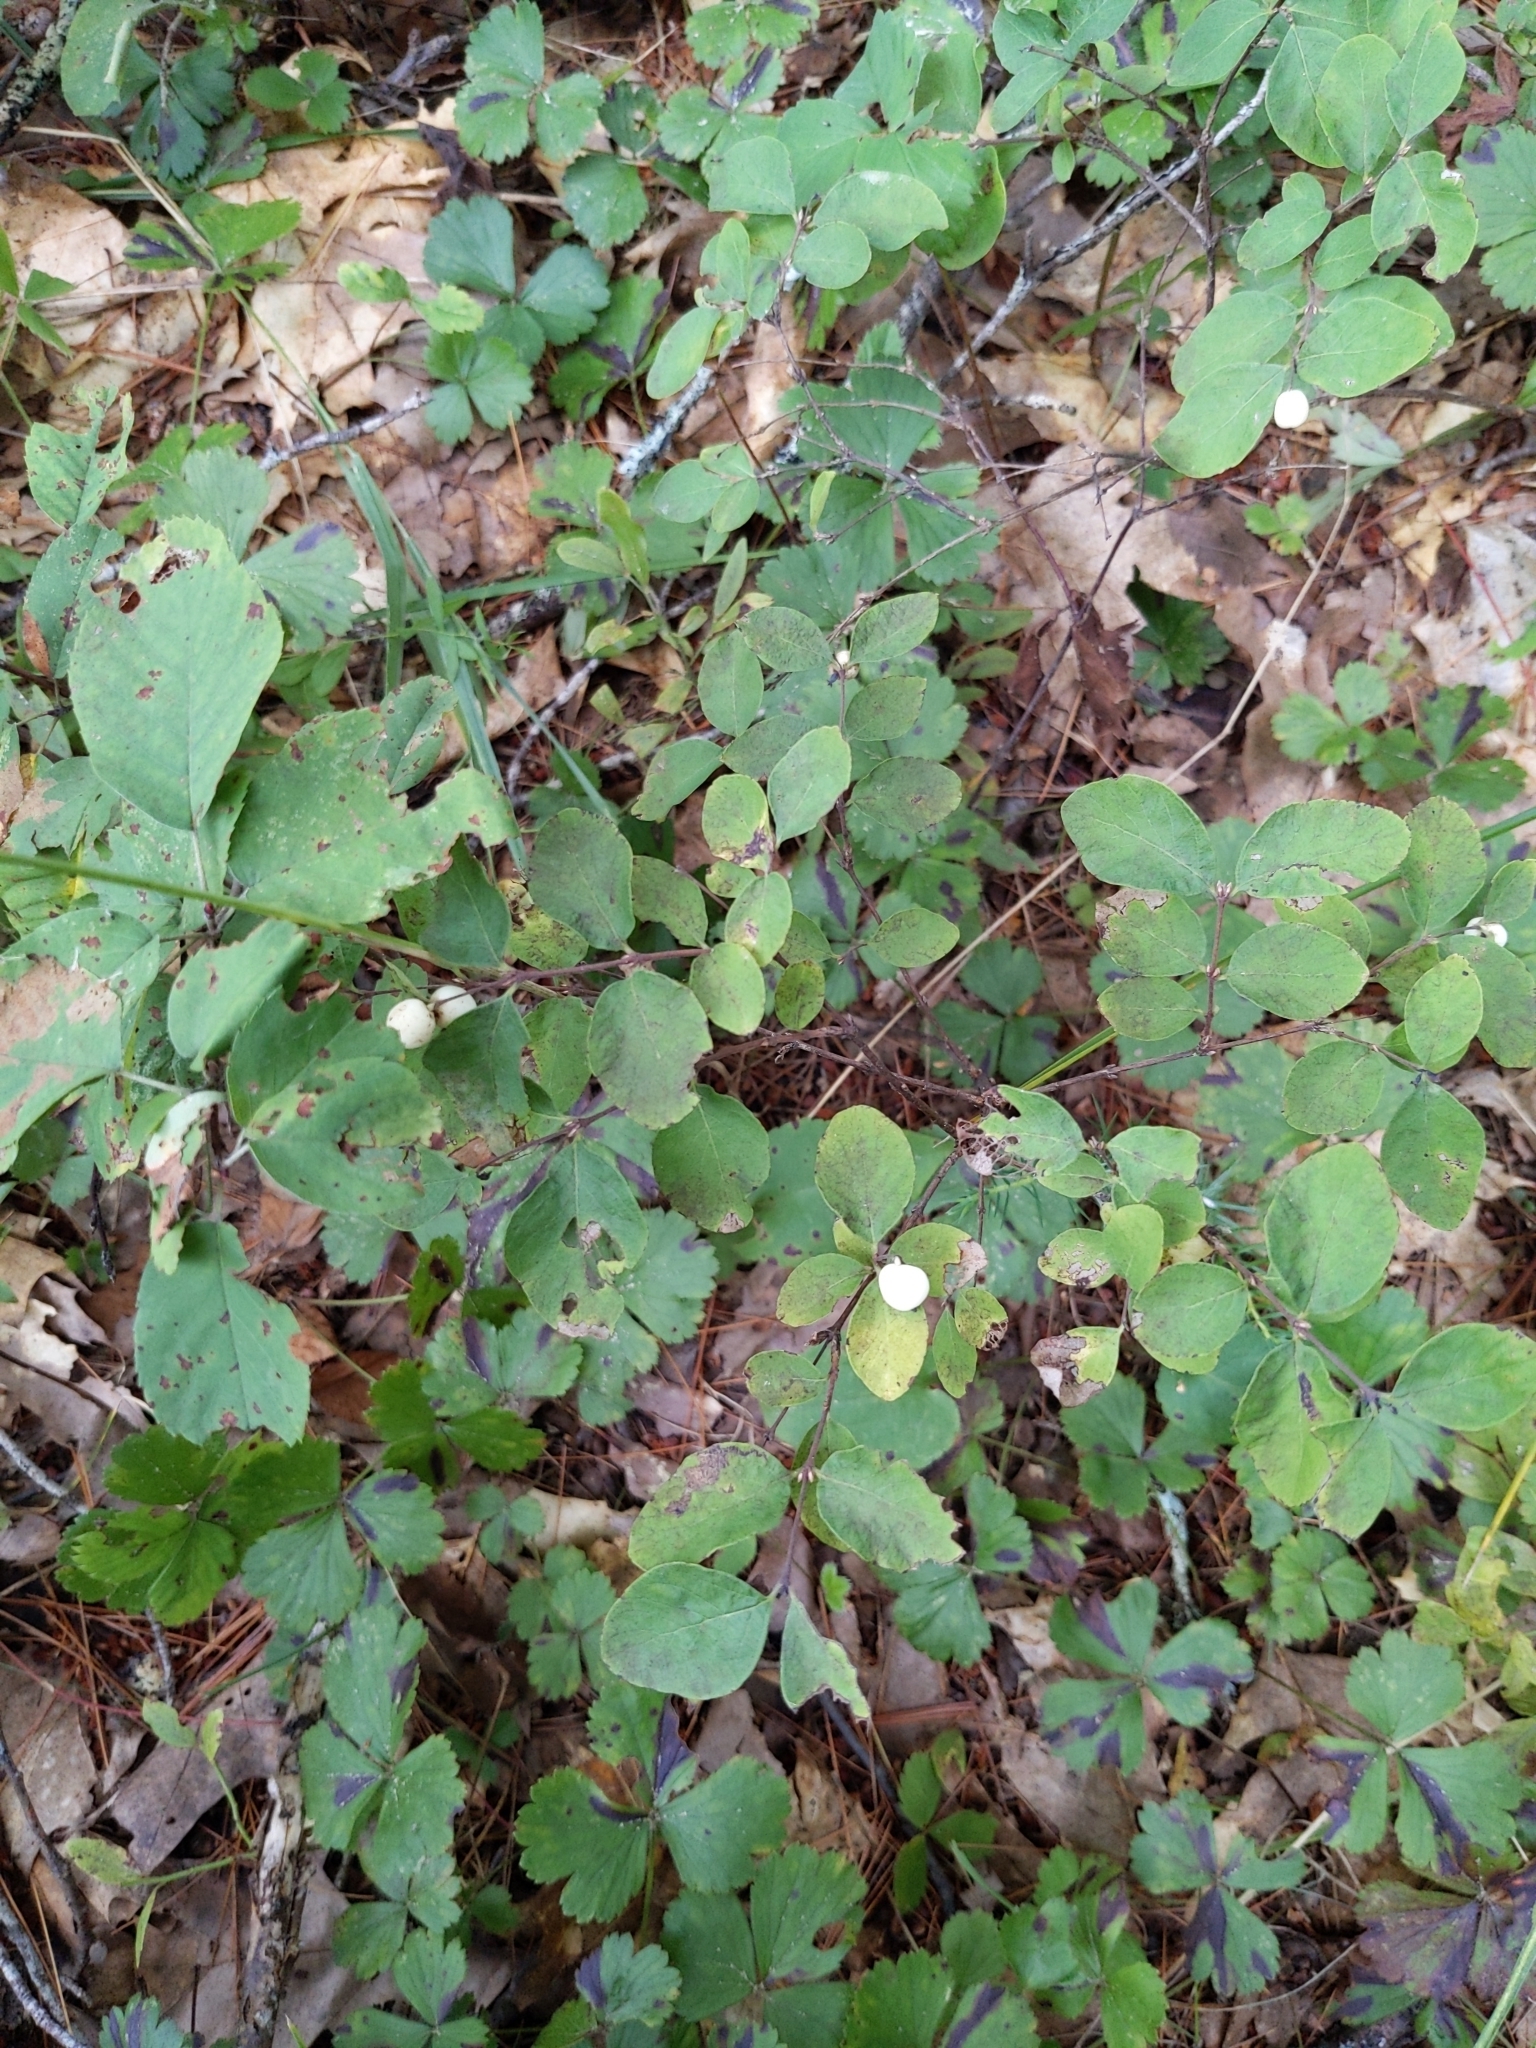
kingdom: Plantae
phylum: Tracheophyta
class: Magnoliopsida
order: Dipsacales
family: Caprifoliaceae
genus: Symphoricarpos
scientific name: Symphoricarpos albus
